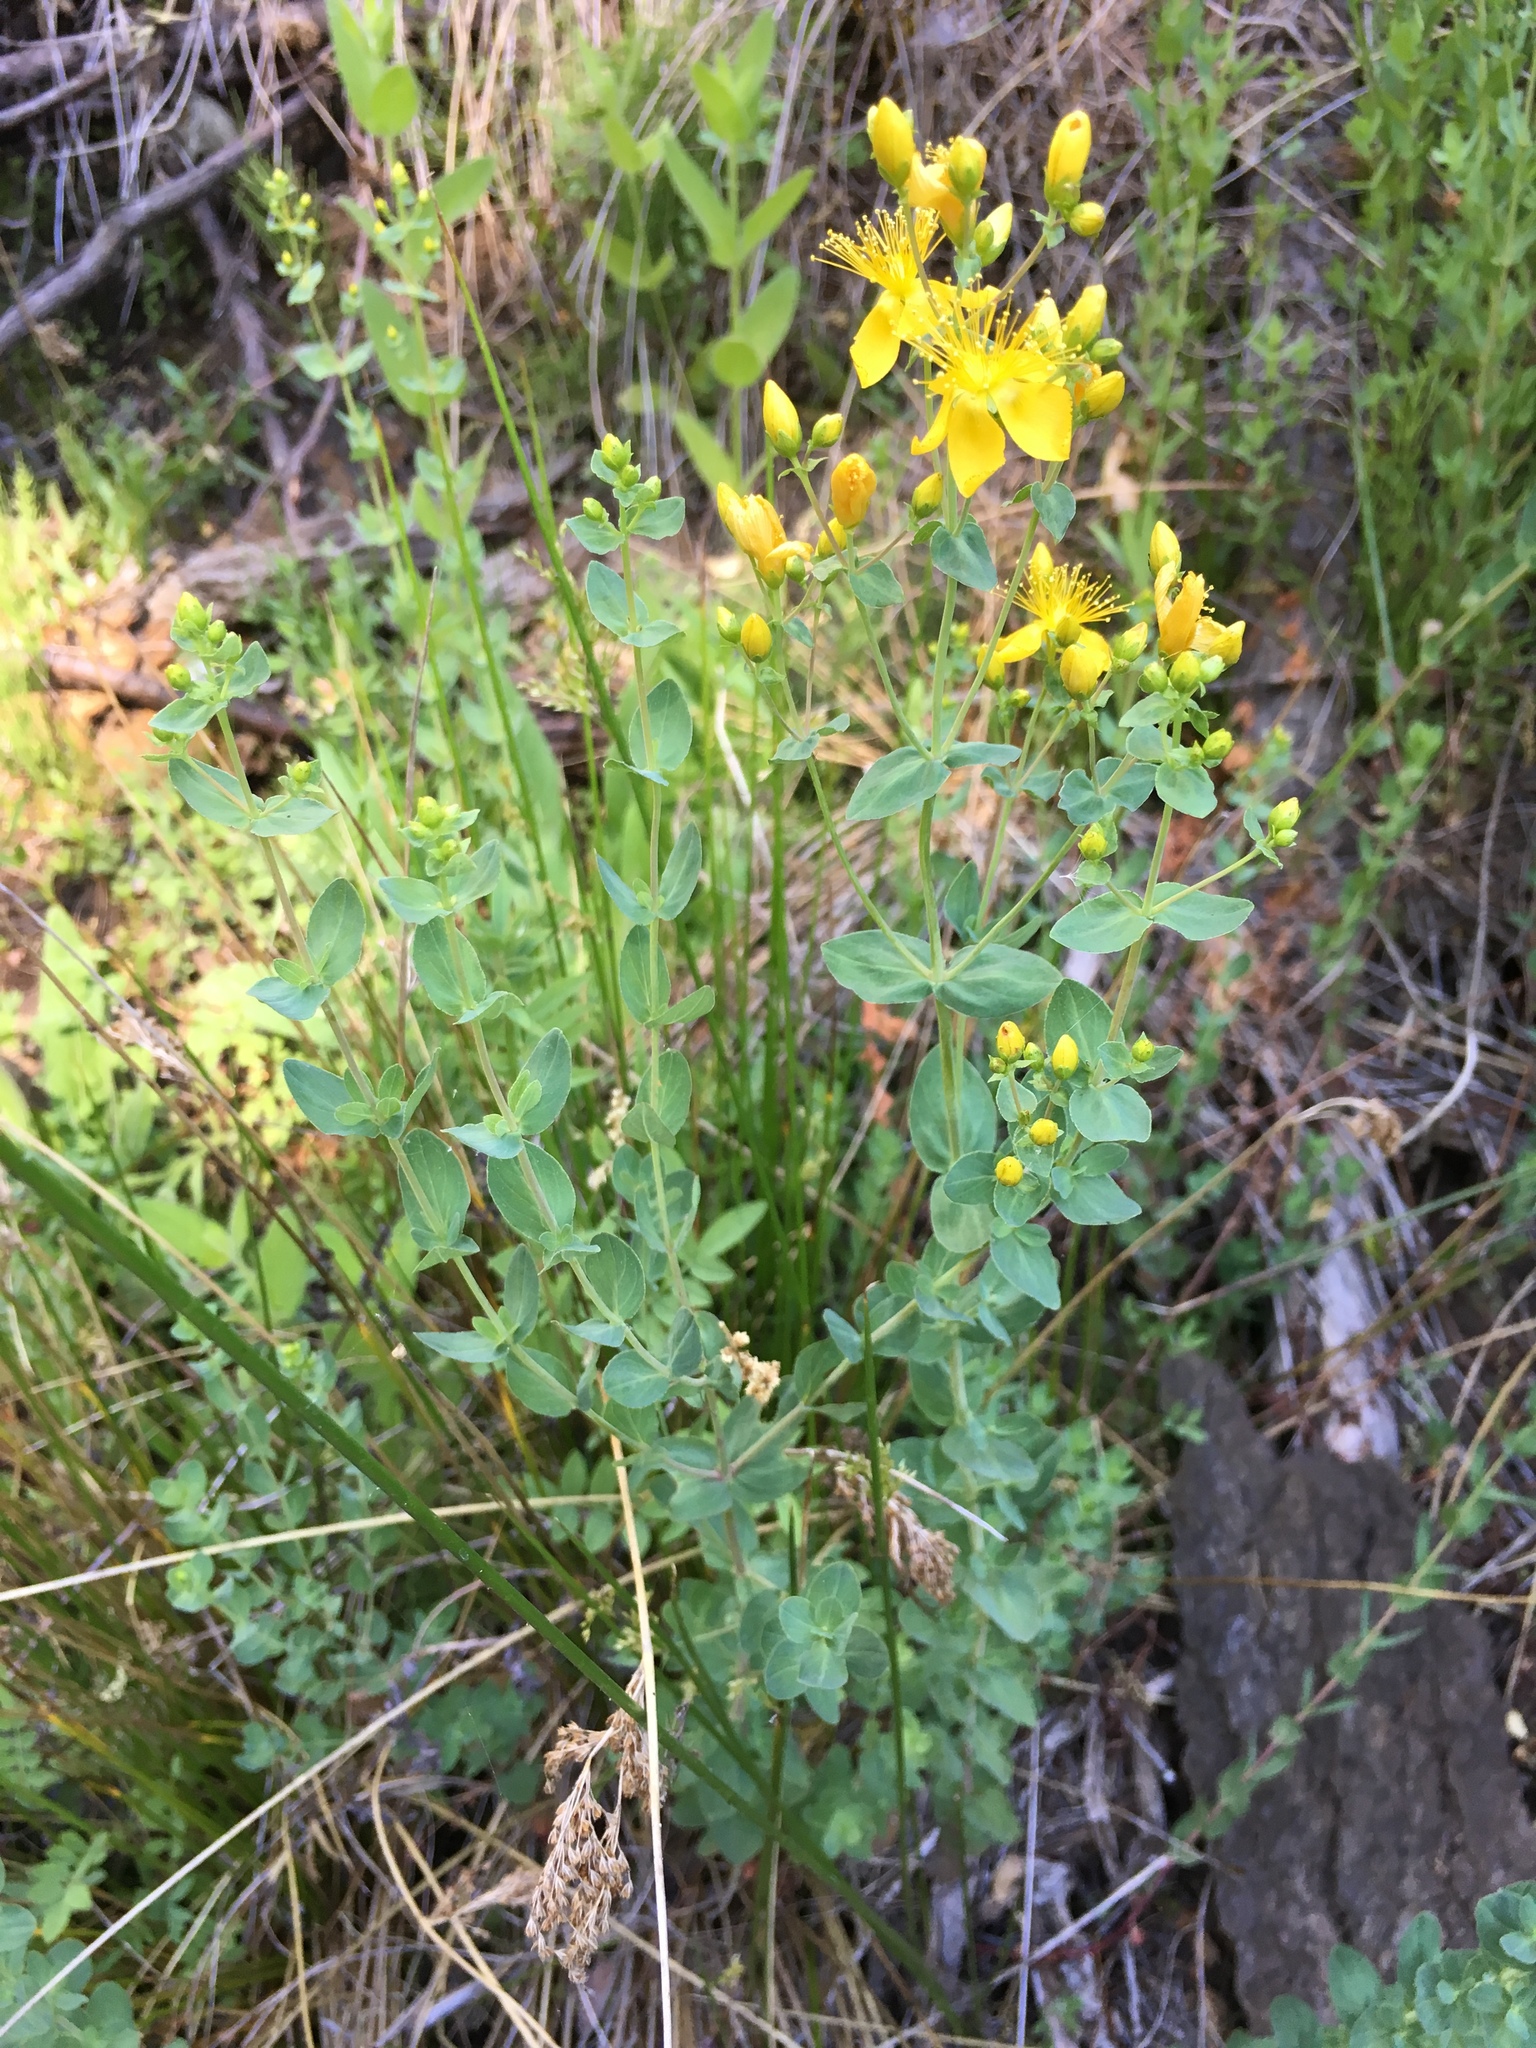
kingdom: Plantae
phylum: Tracheophyta
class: Magnoliopsida
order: Malpighiales
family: Hypericaceae
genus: Hypericum
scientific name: Hypericum scouleri
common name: Scouler's st. john's-wort
